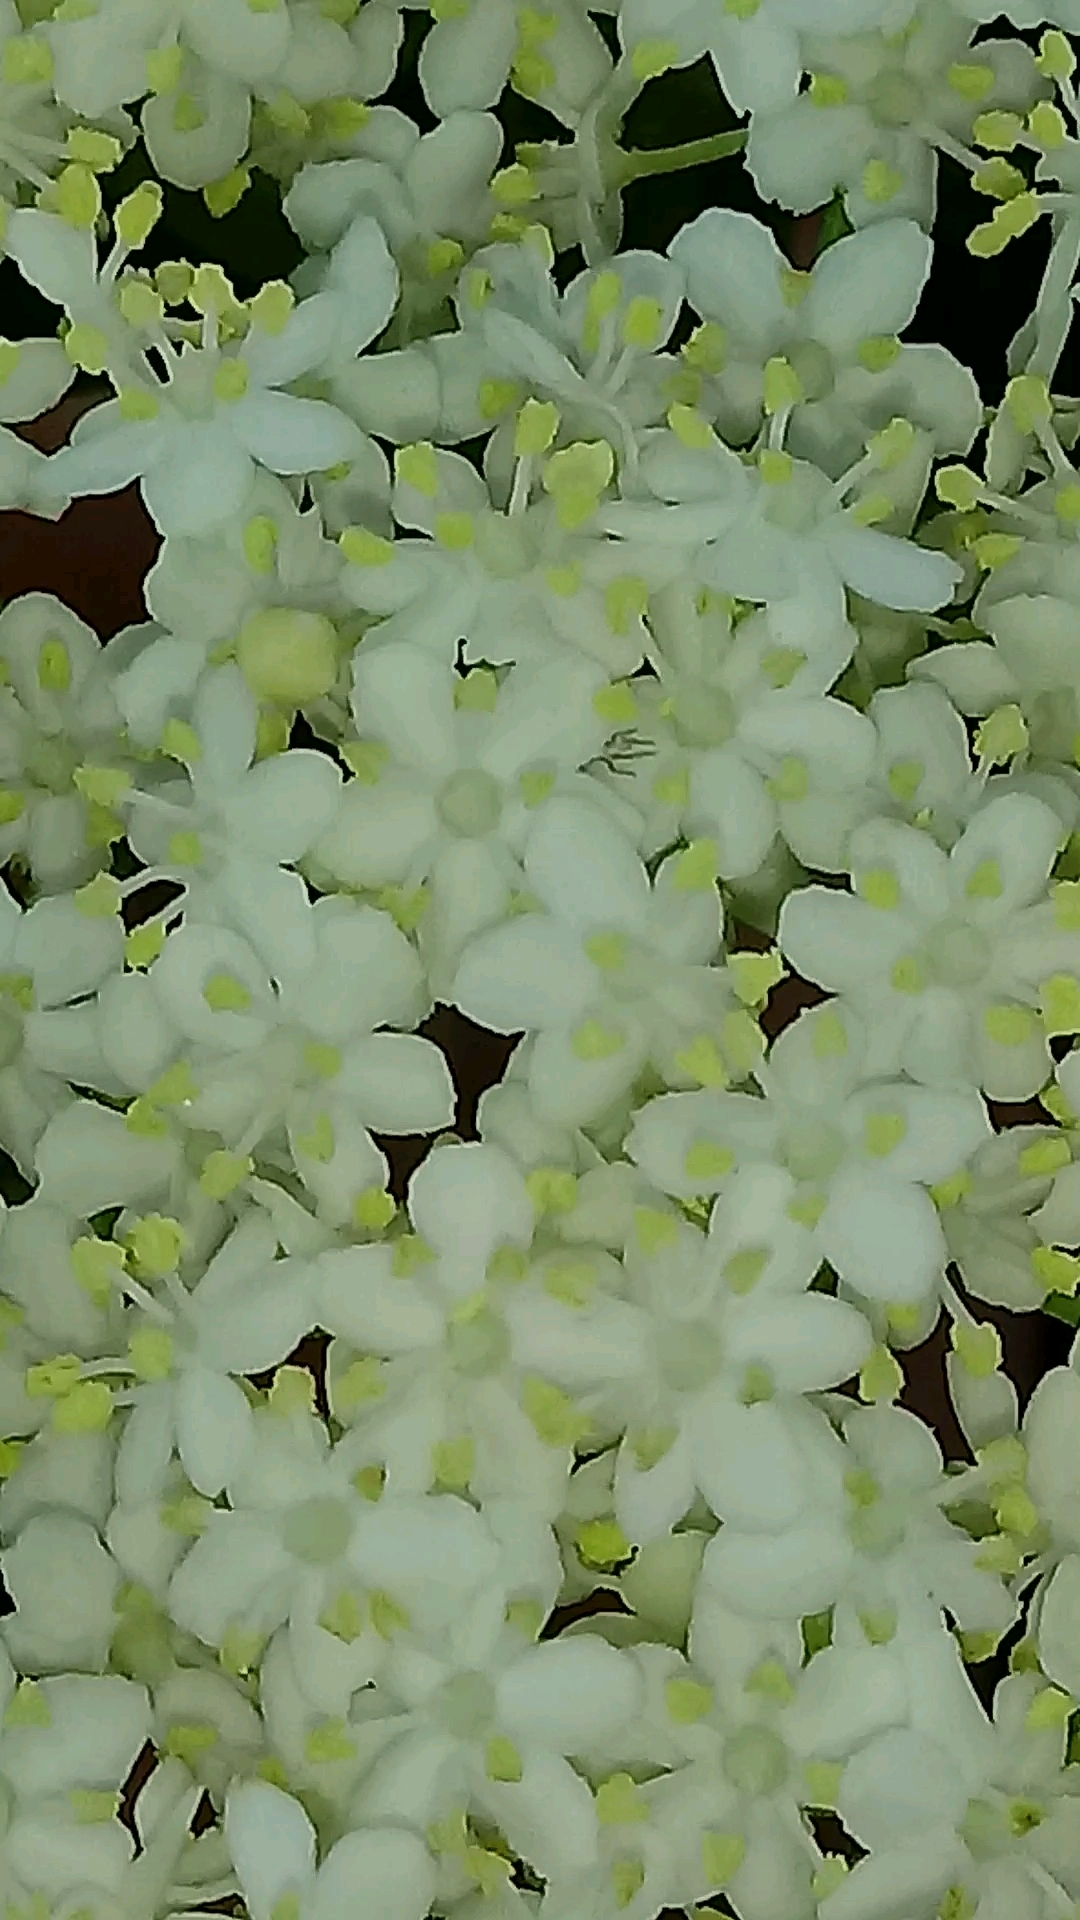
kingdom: Plantae
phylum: Tracheophyta
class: Magnoliopsida
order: Dipsacales
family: Viburnaceae
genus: Sambucus
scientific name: Sambucus nigra
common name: Elder
